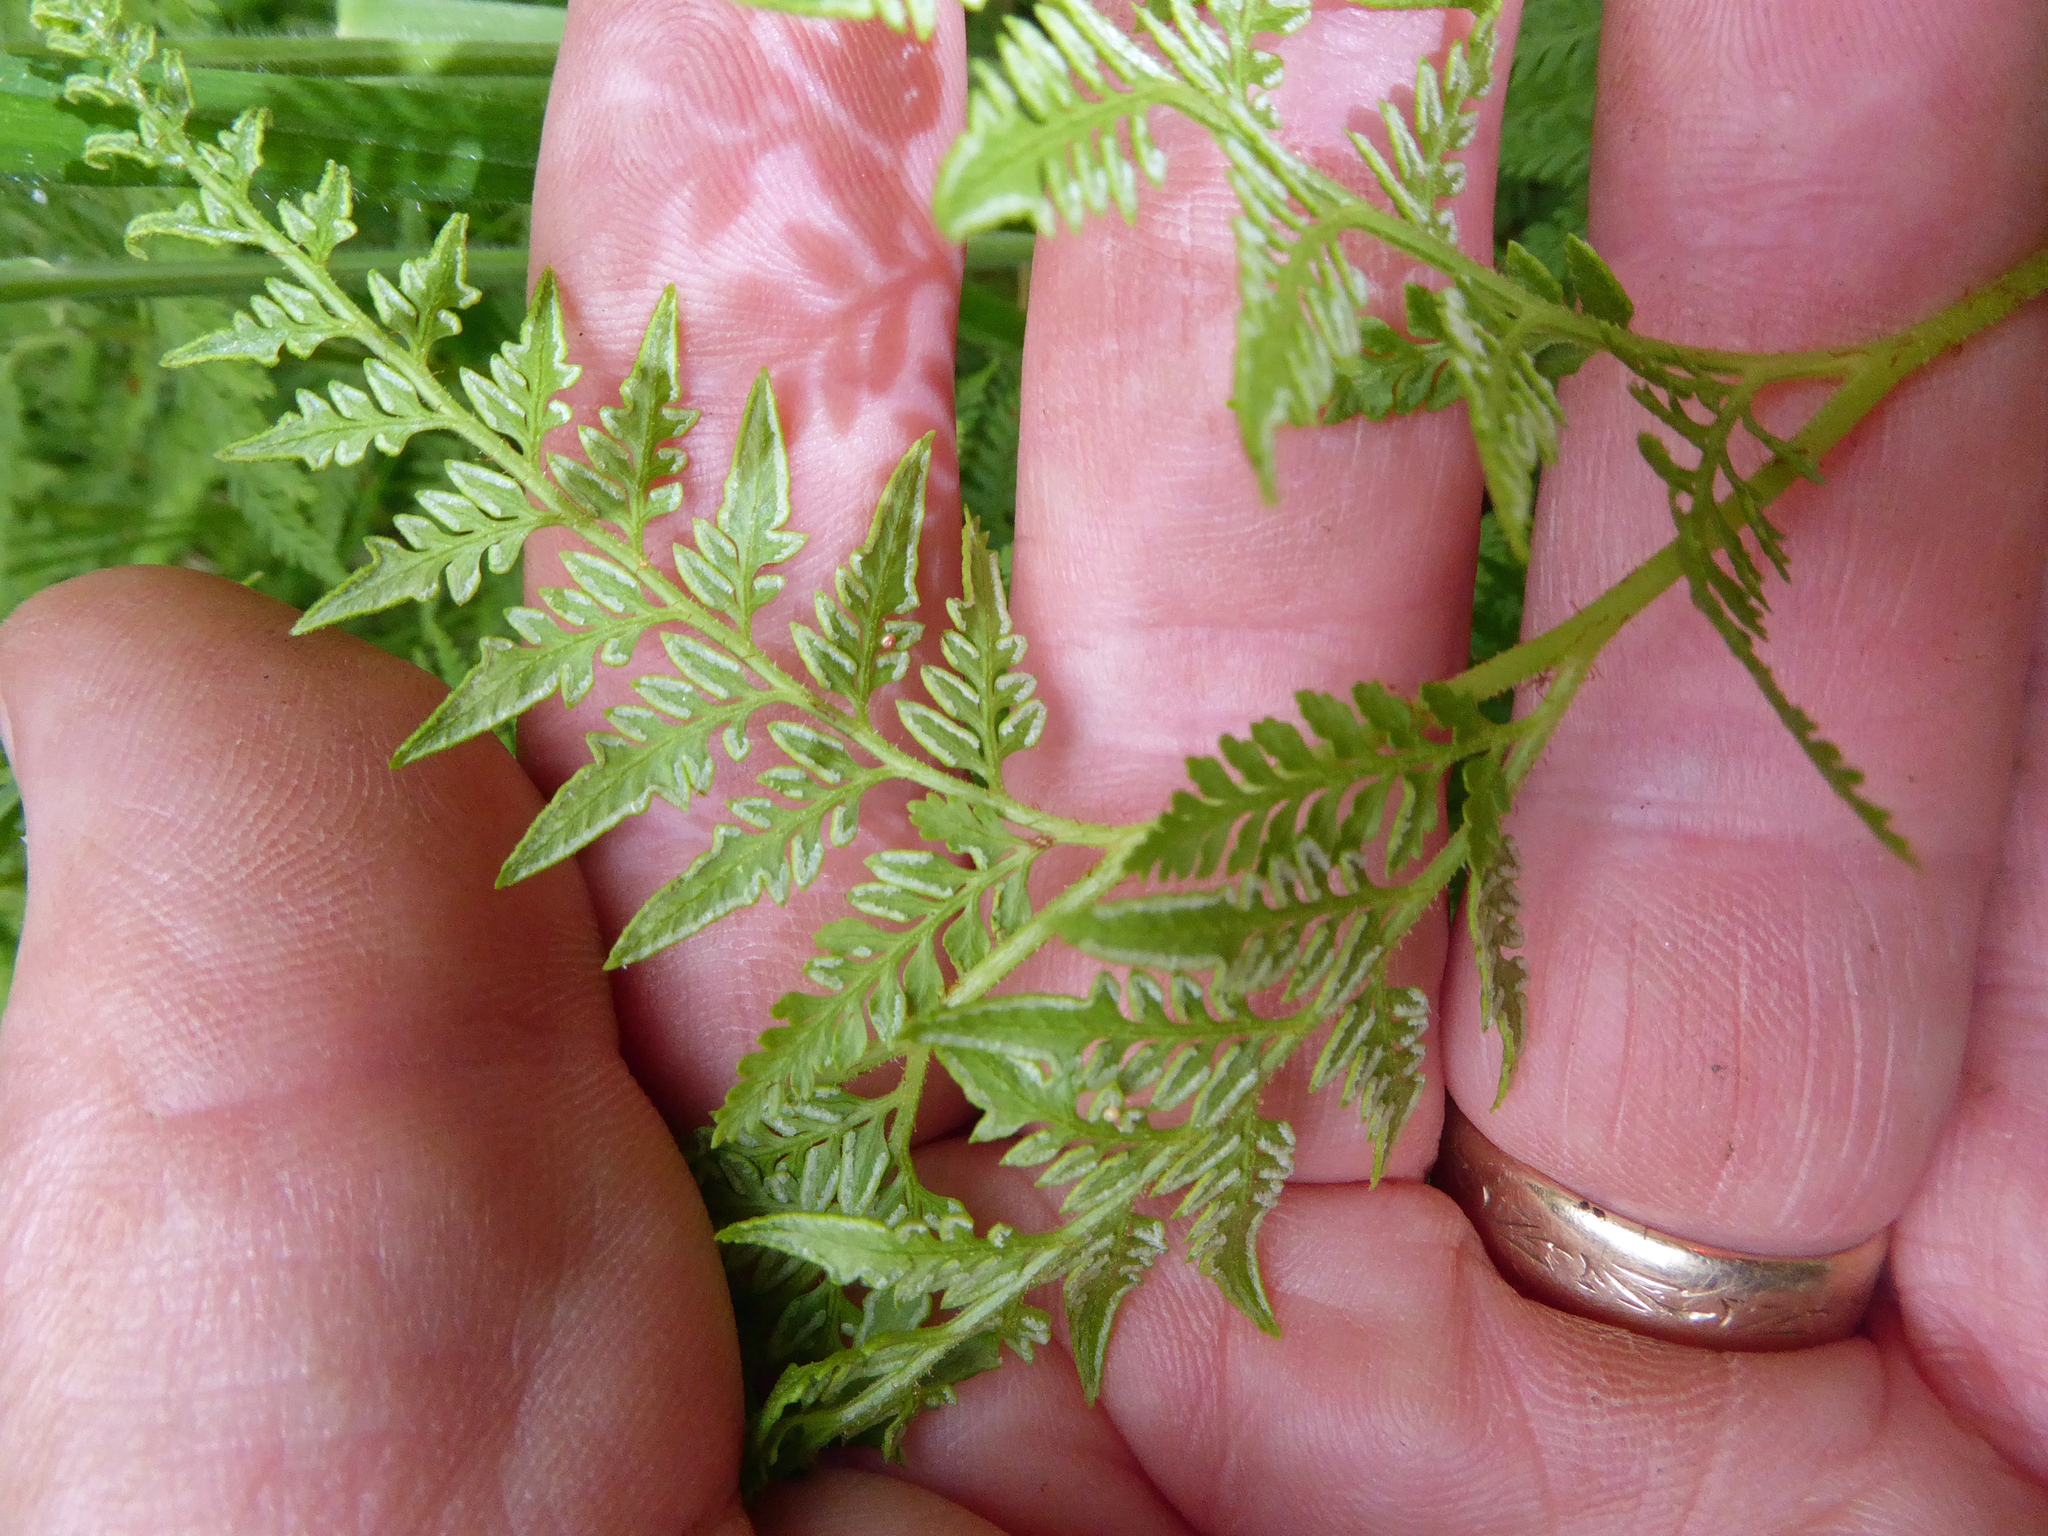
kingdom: Plantae
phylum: Tracheophyta
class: Polypodiopsida
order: Polypodiales
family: Dennstaedtiaceae
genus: Paesia
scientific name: Paesia scaberula
